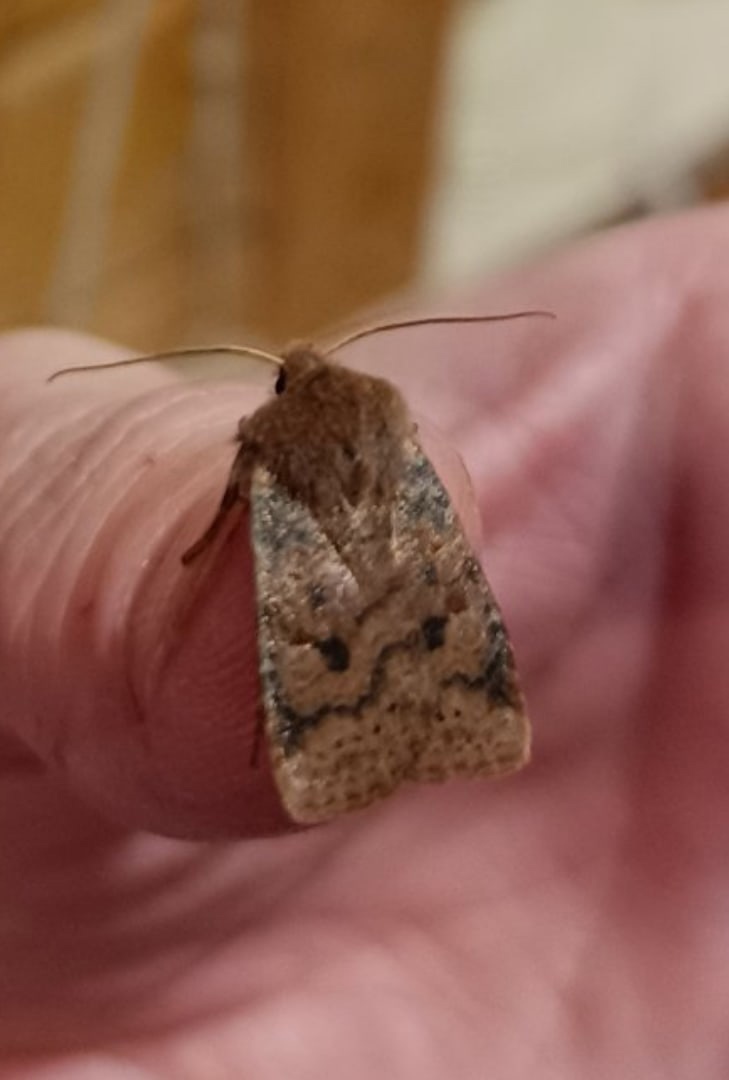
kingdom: Animalia
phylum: Arthropoda
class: Insecta
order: Lepidoptera
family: Noctuidae
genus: Conistra
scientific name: Conistra vaccinii
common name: Chestnut
